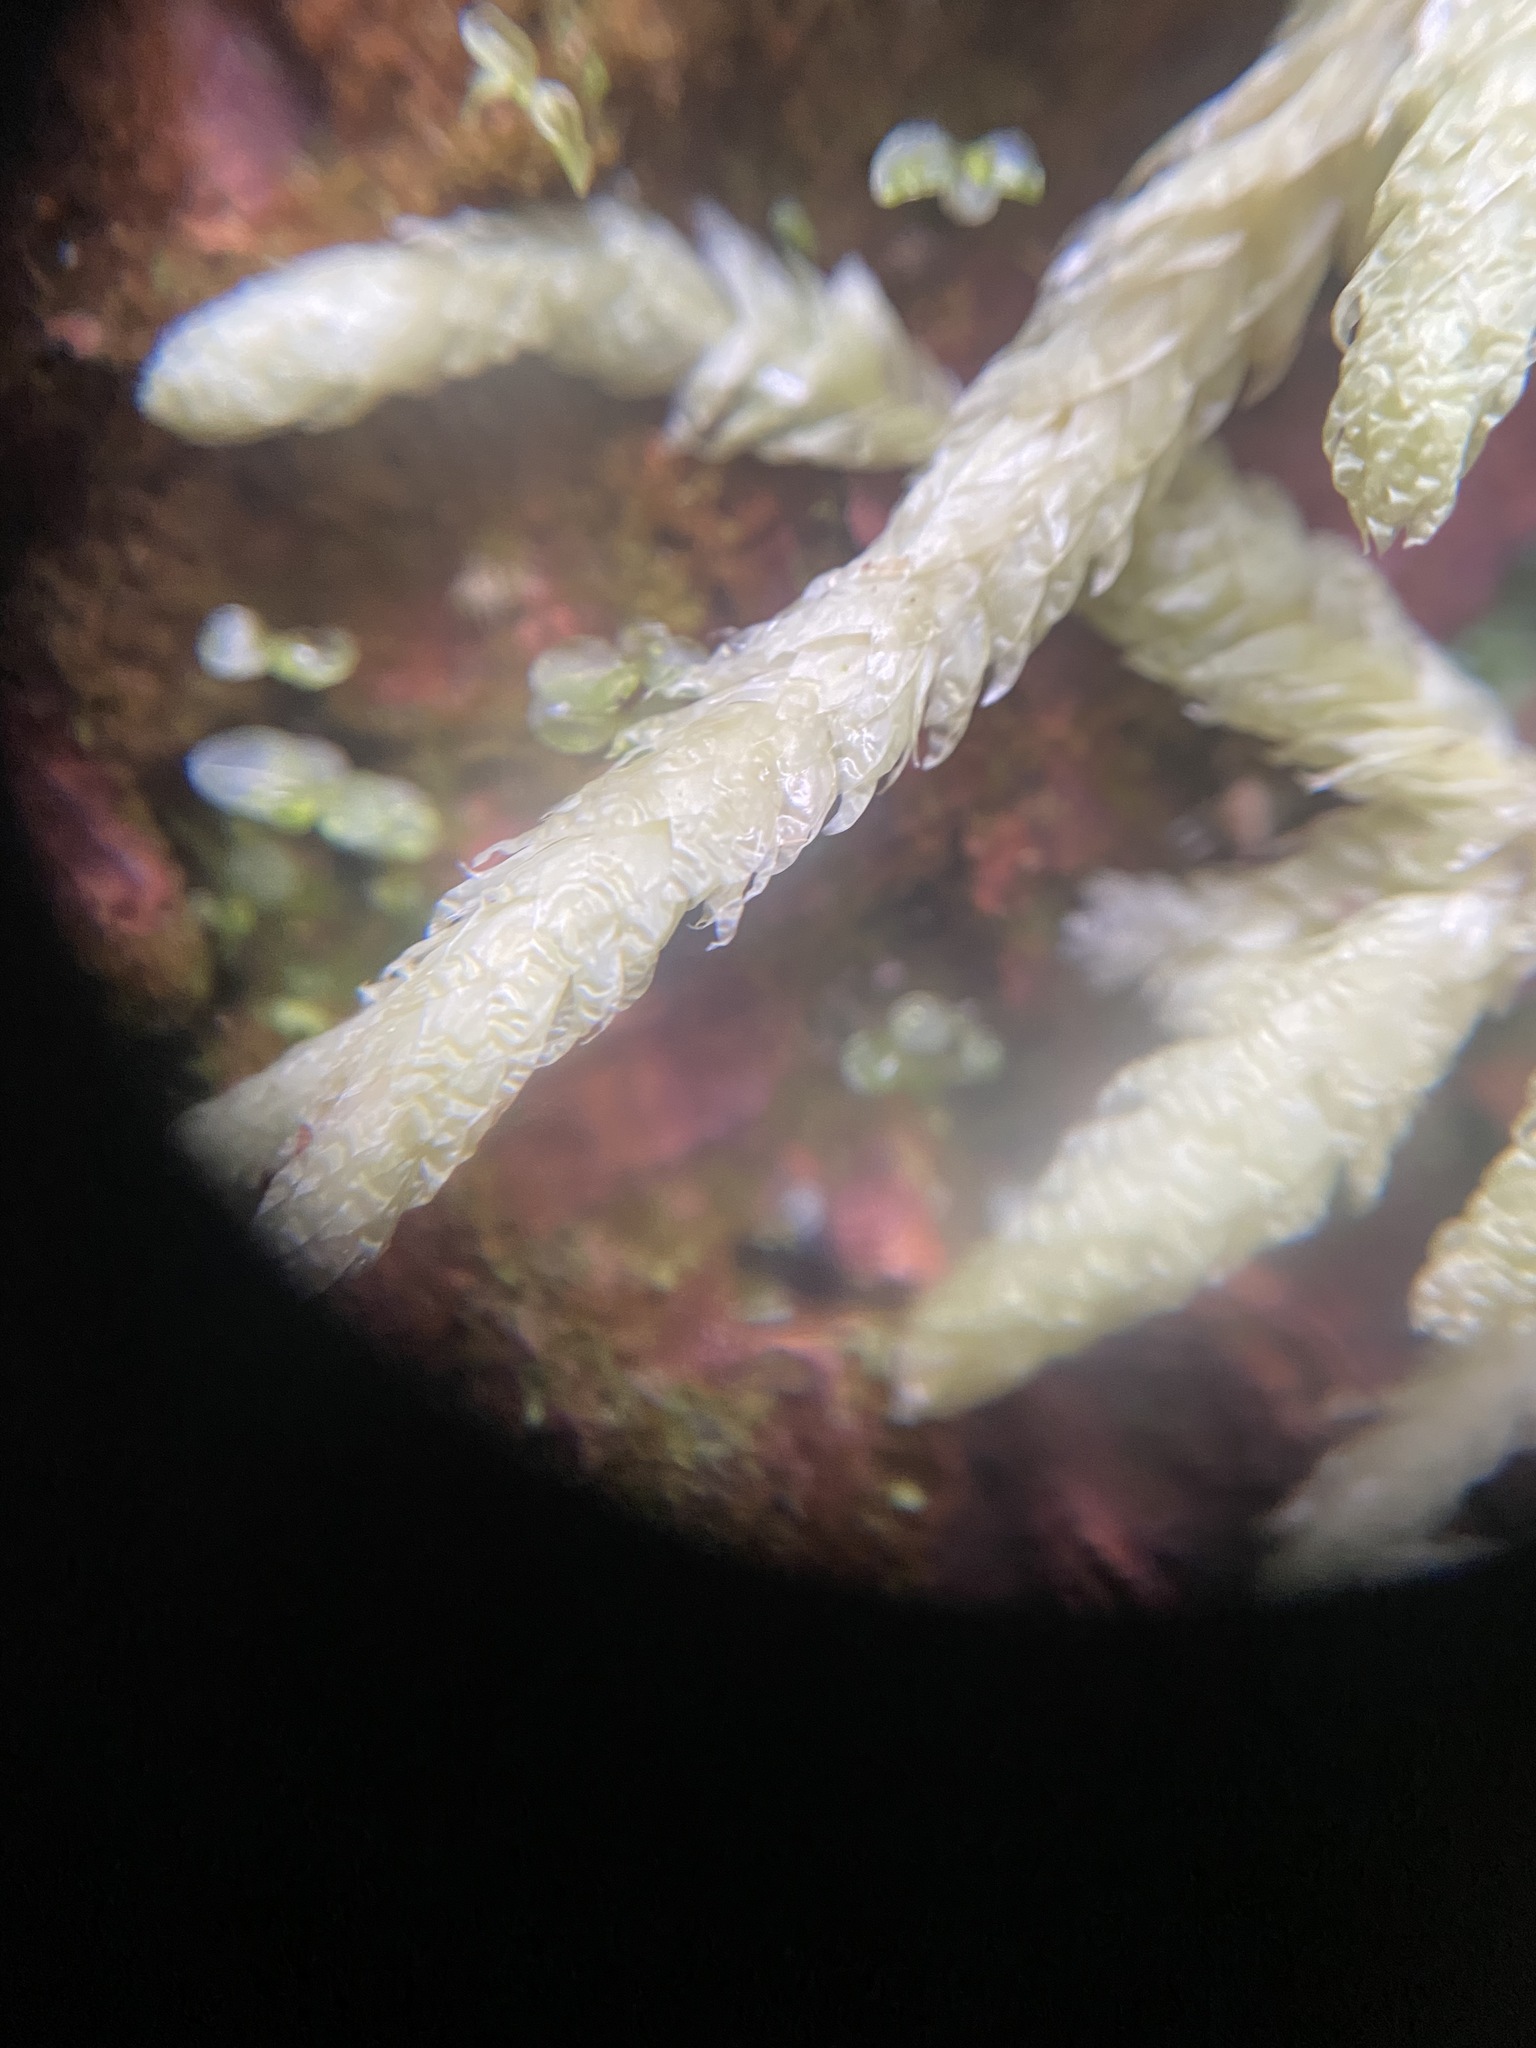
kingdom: Plantae
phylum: Bryophyta
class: Bryopsida
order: Hypnales
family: Plagiotheciaceae
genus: Plagiothecium
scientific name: Plagiothecium undulatum
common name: Waved silk-moss
